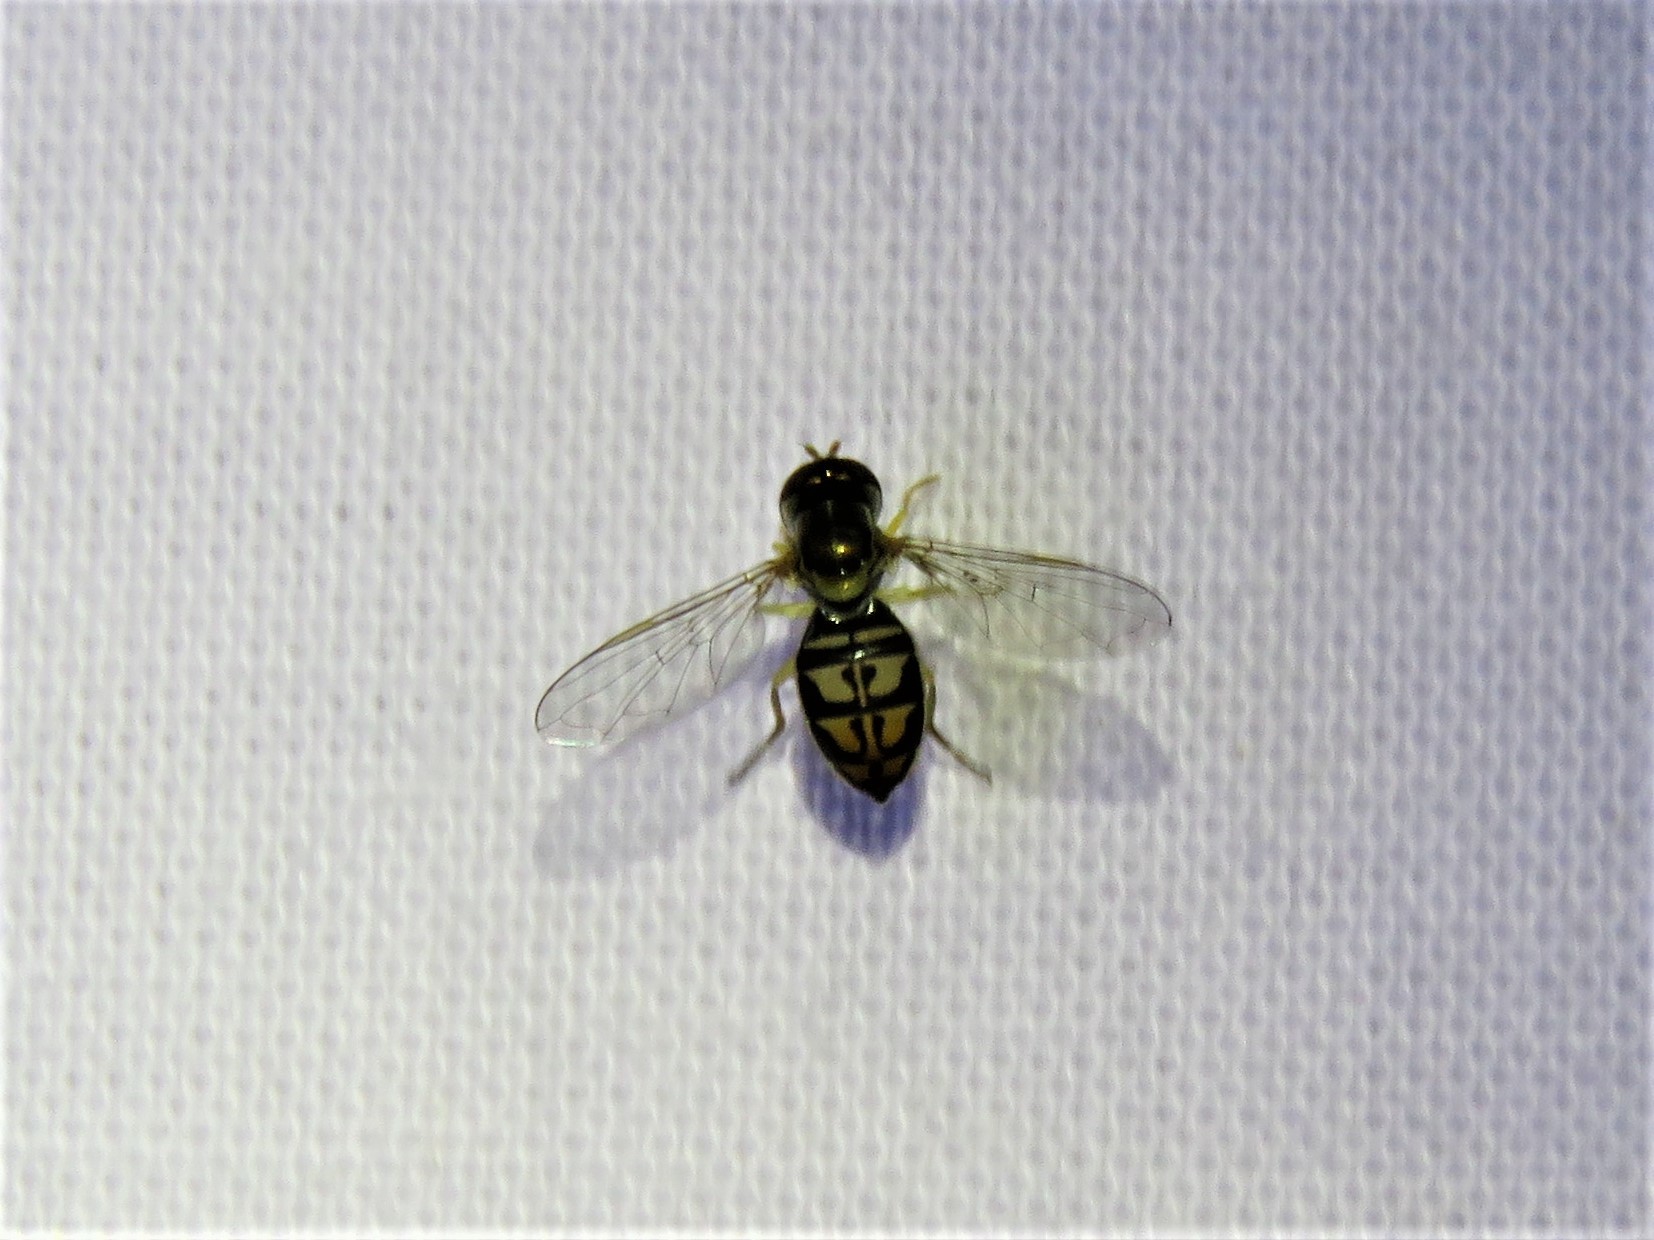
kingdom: Animalia
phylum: Arthropoda
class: Insecta
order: Diptera
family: Syrphidae
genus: Toxomerus
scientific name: Toxomerus marginatus
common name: Syrphid fly
